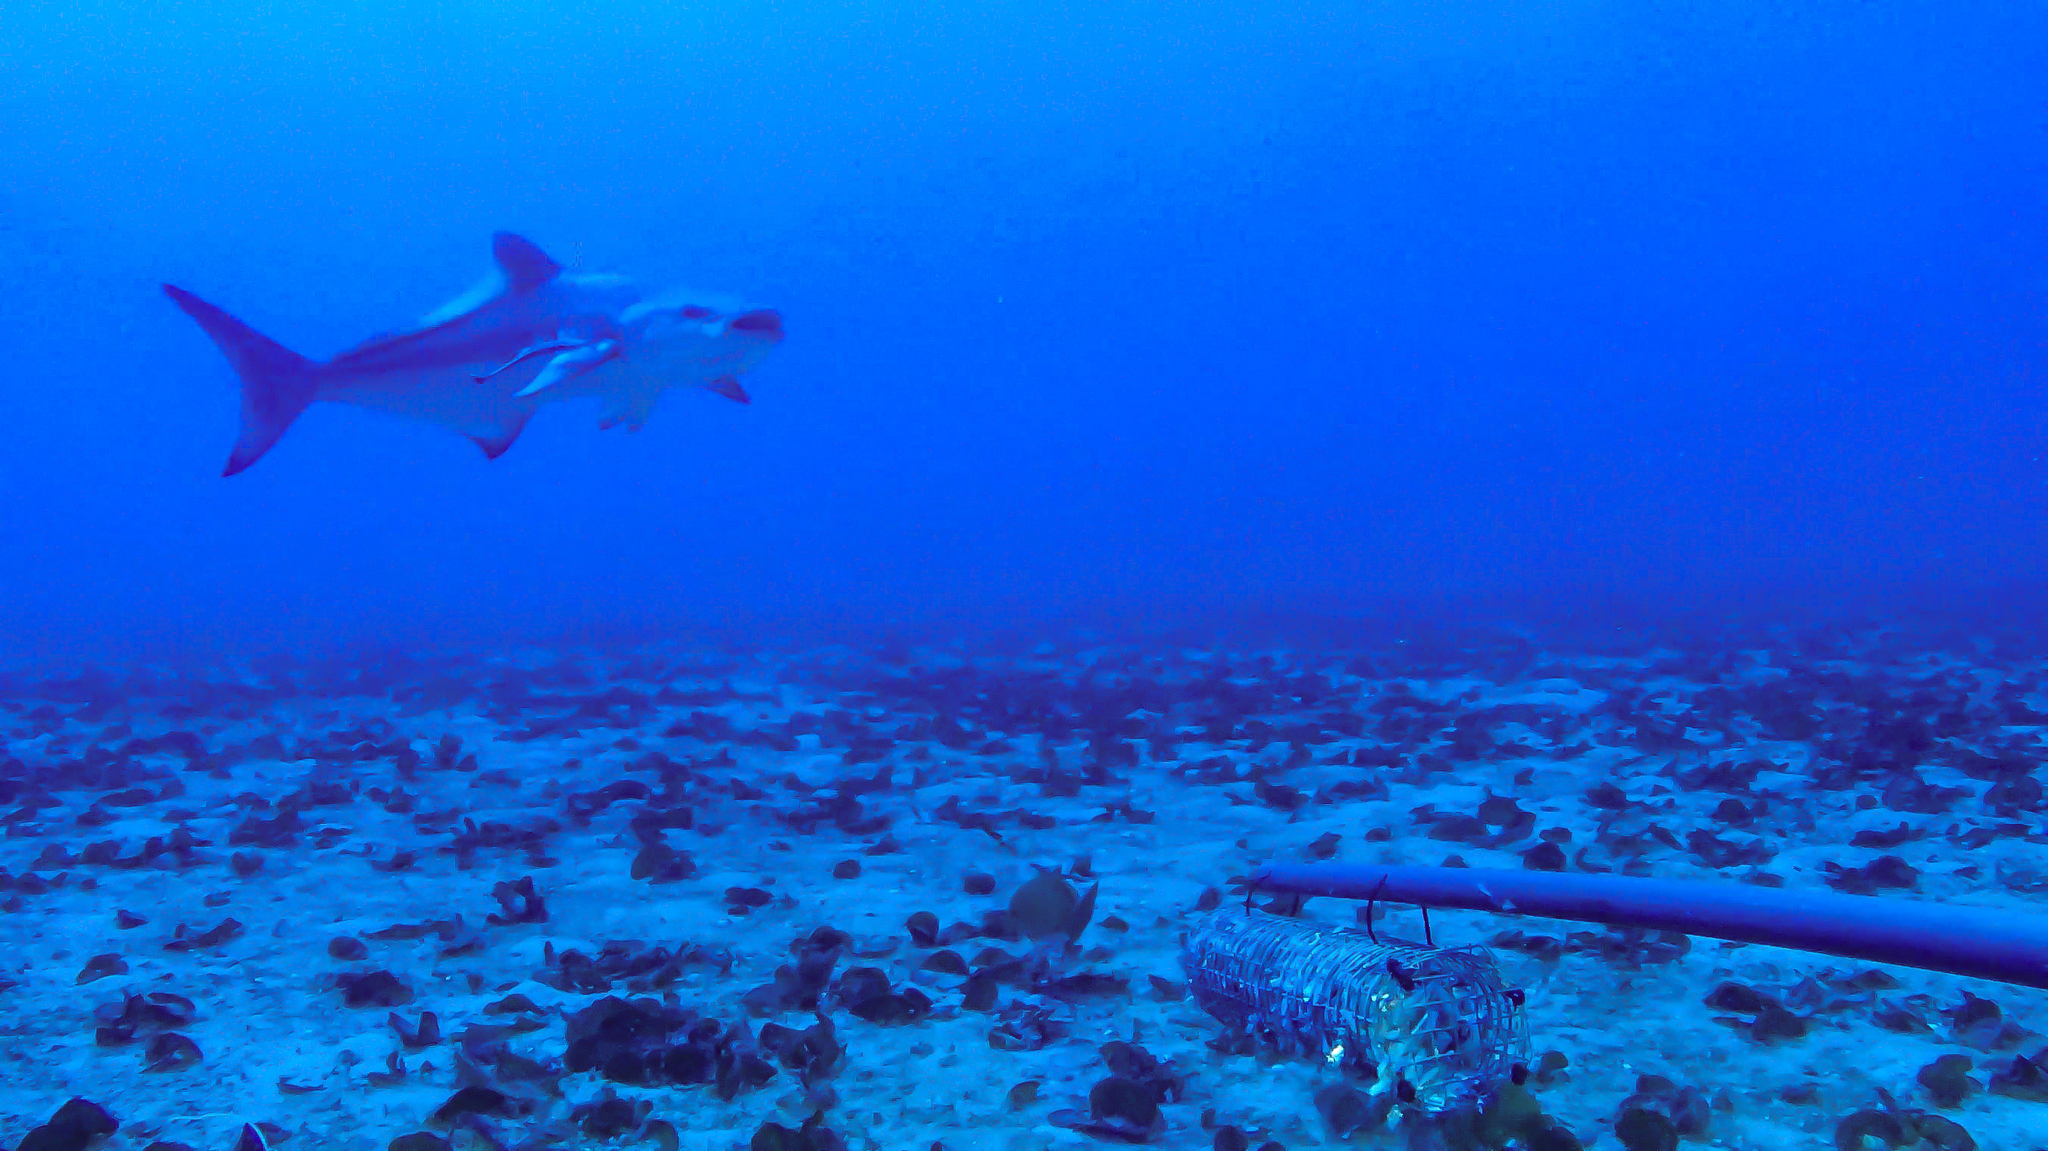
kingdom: Animalia
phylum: Chordata
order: Perciformes
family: Rachycentridae
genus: Rachycentron
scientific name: Rachycentron canadum
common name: Cobia
